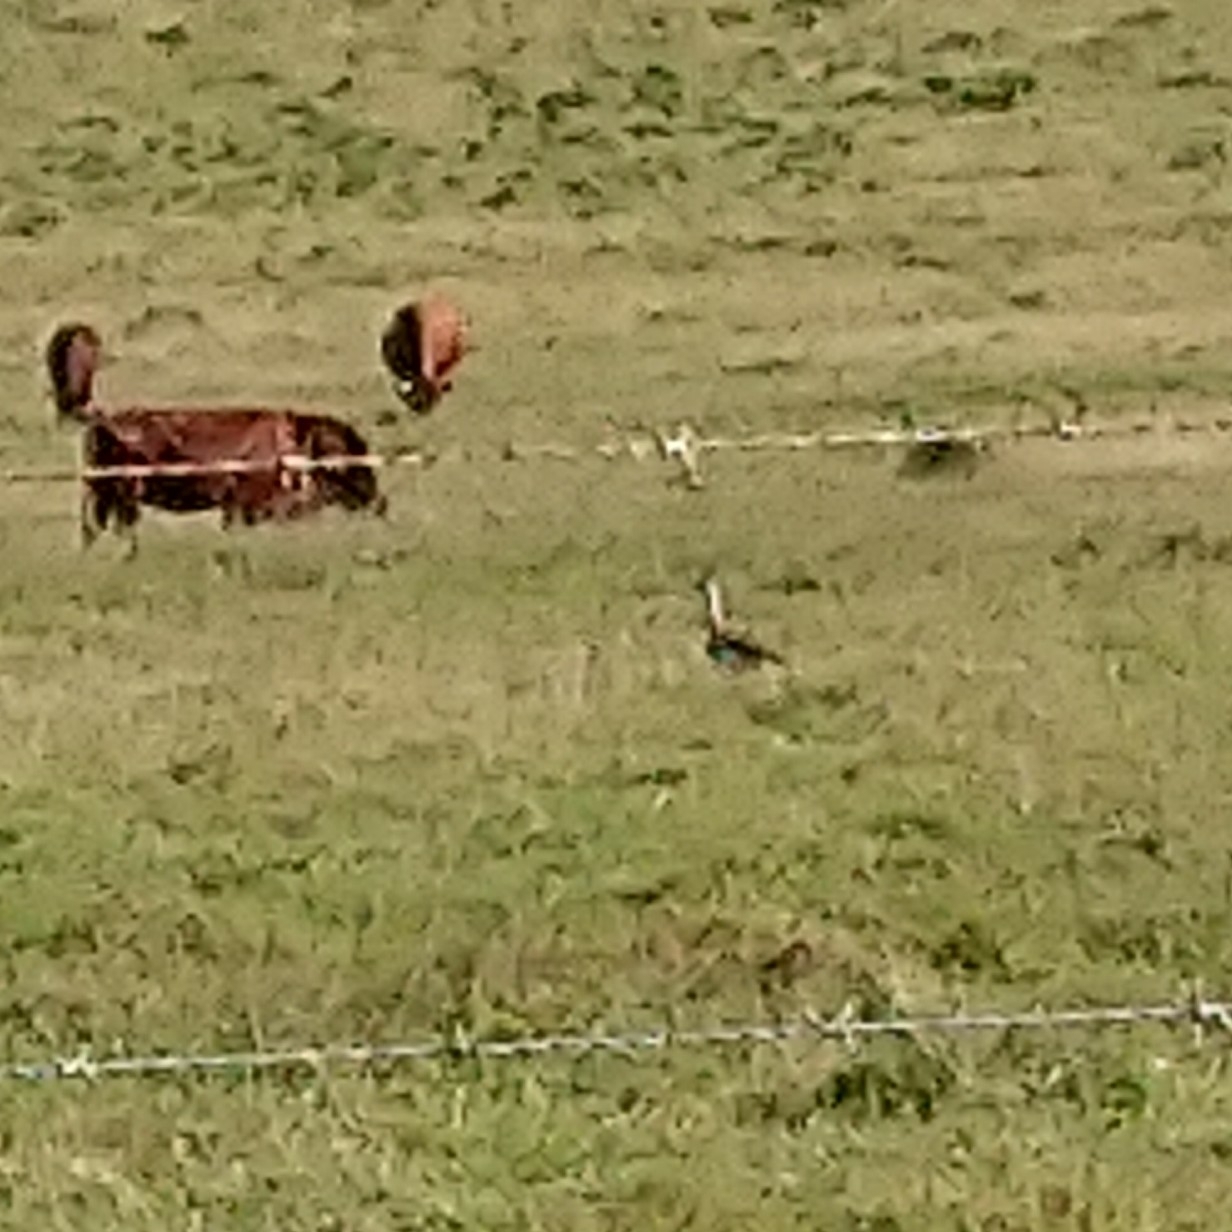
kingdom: Animalia
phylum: Chordata
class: Aves
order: Otidiformes
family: Otididae
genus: Neotis
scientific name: Neotis denhami
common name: Denham's bustard
